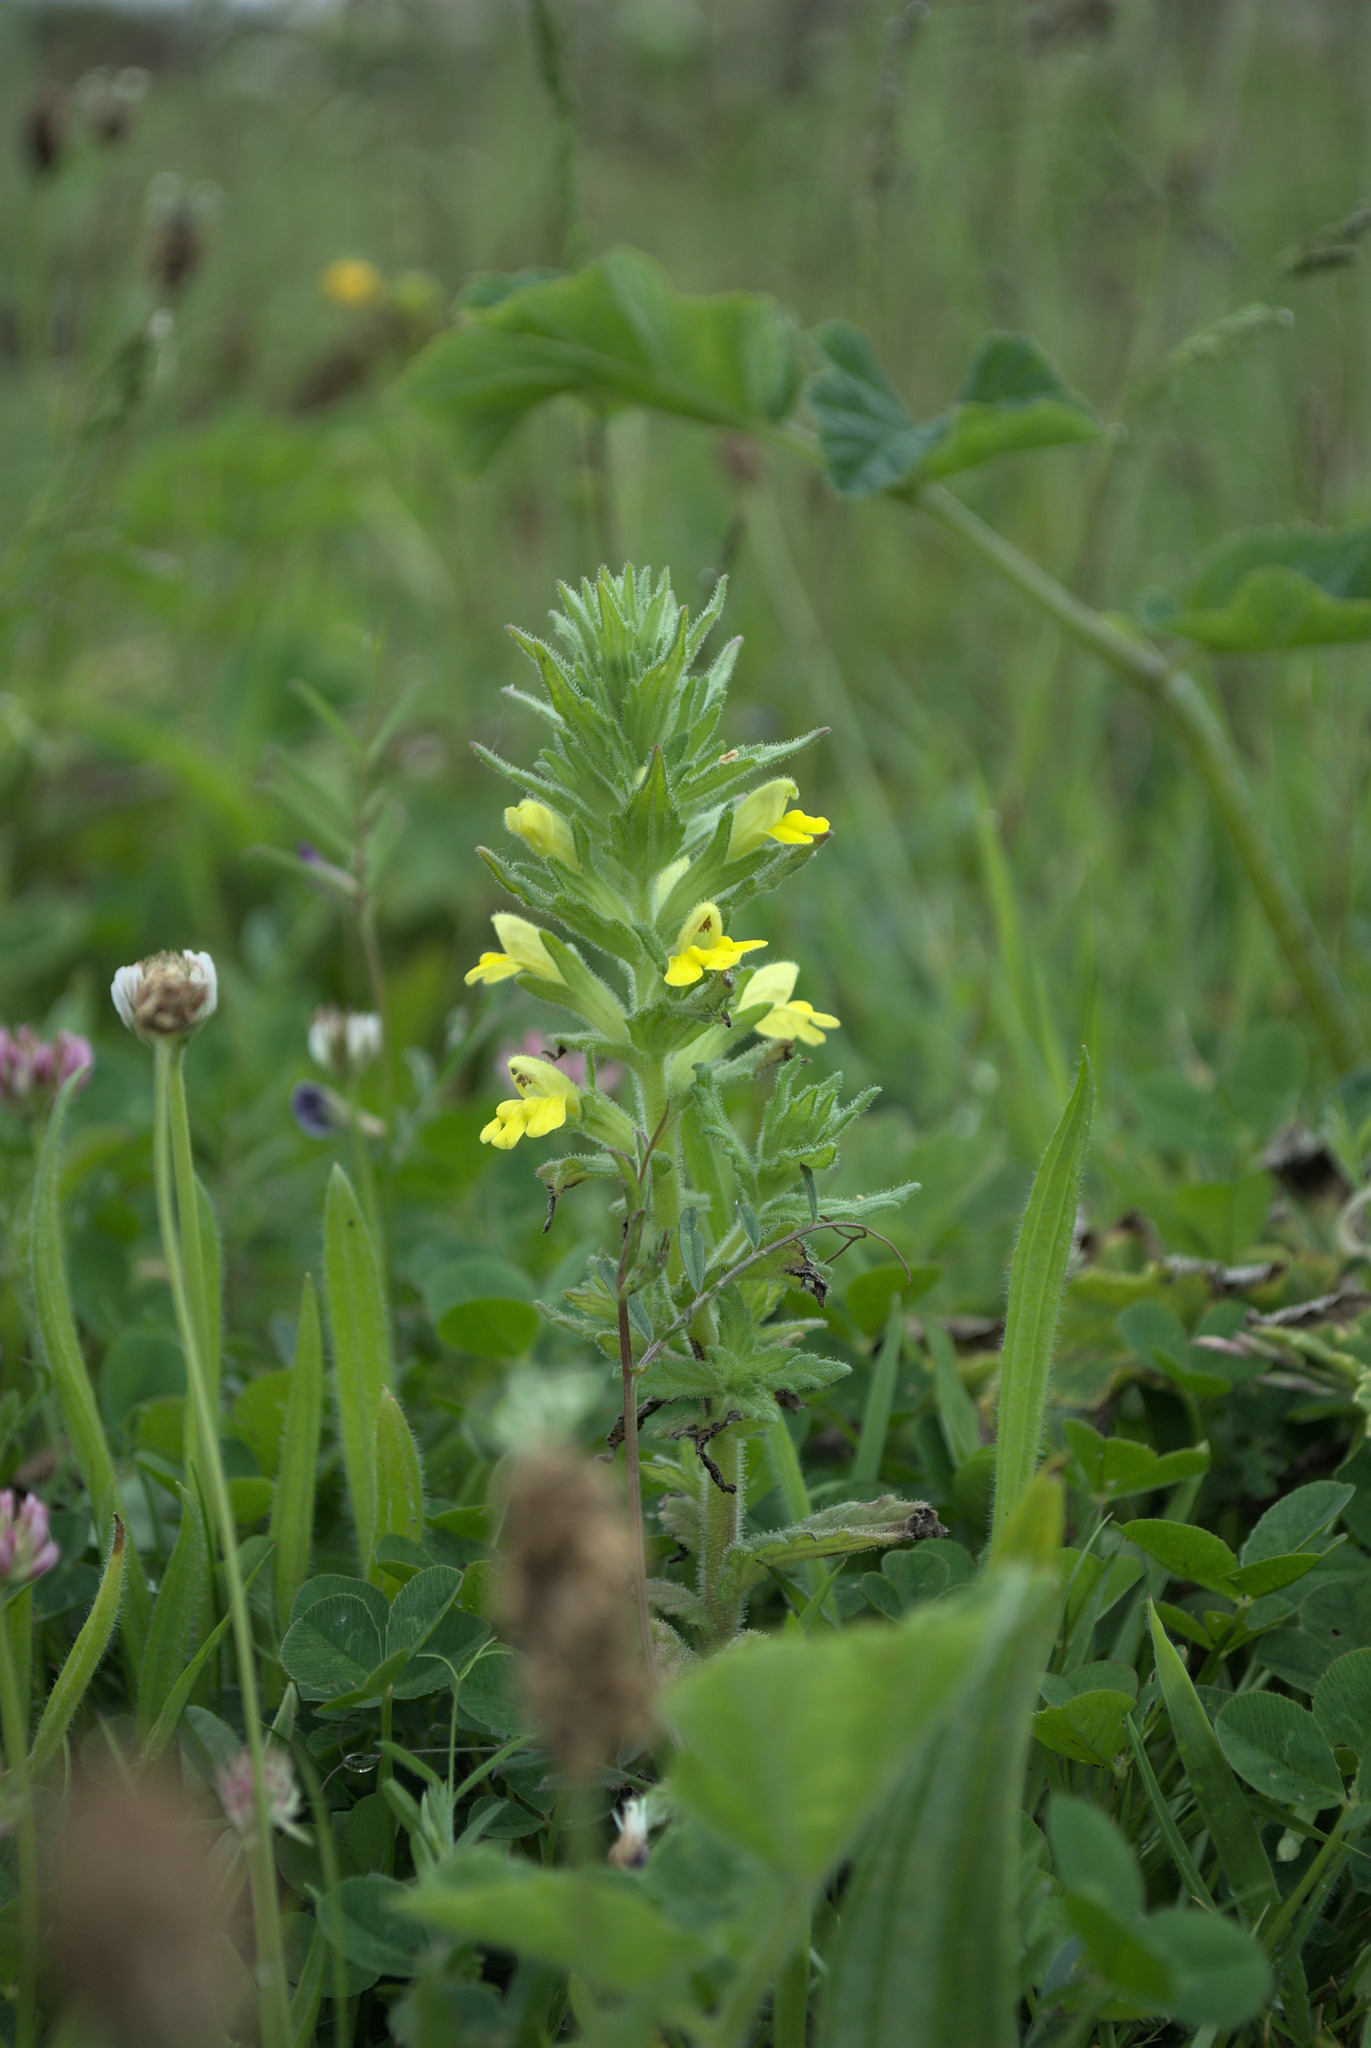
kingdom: Plantae
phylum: Tracheophyta
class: Magnoliopsida
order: Lamiales
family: Orobanchaceae
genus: Bellardia
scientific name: Bellardia viscosa
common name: Sticky parentucellia
